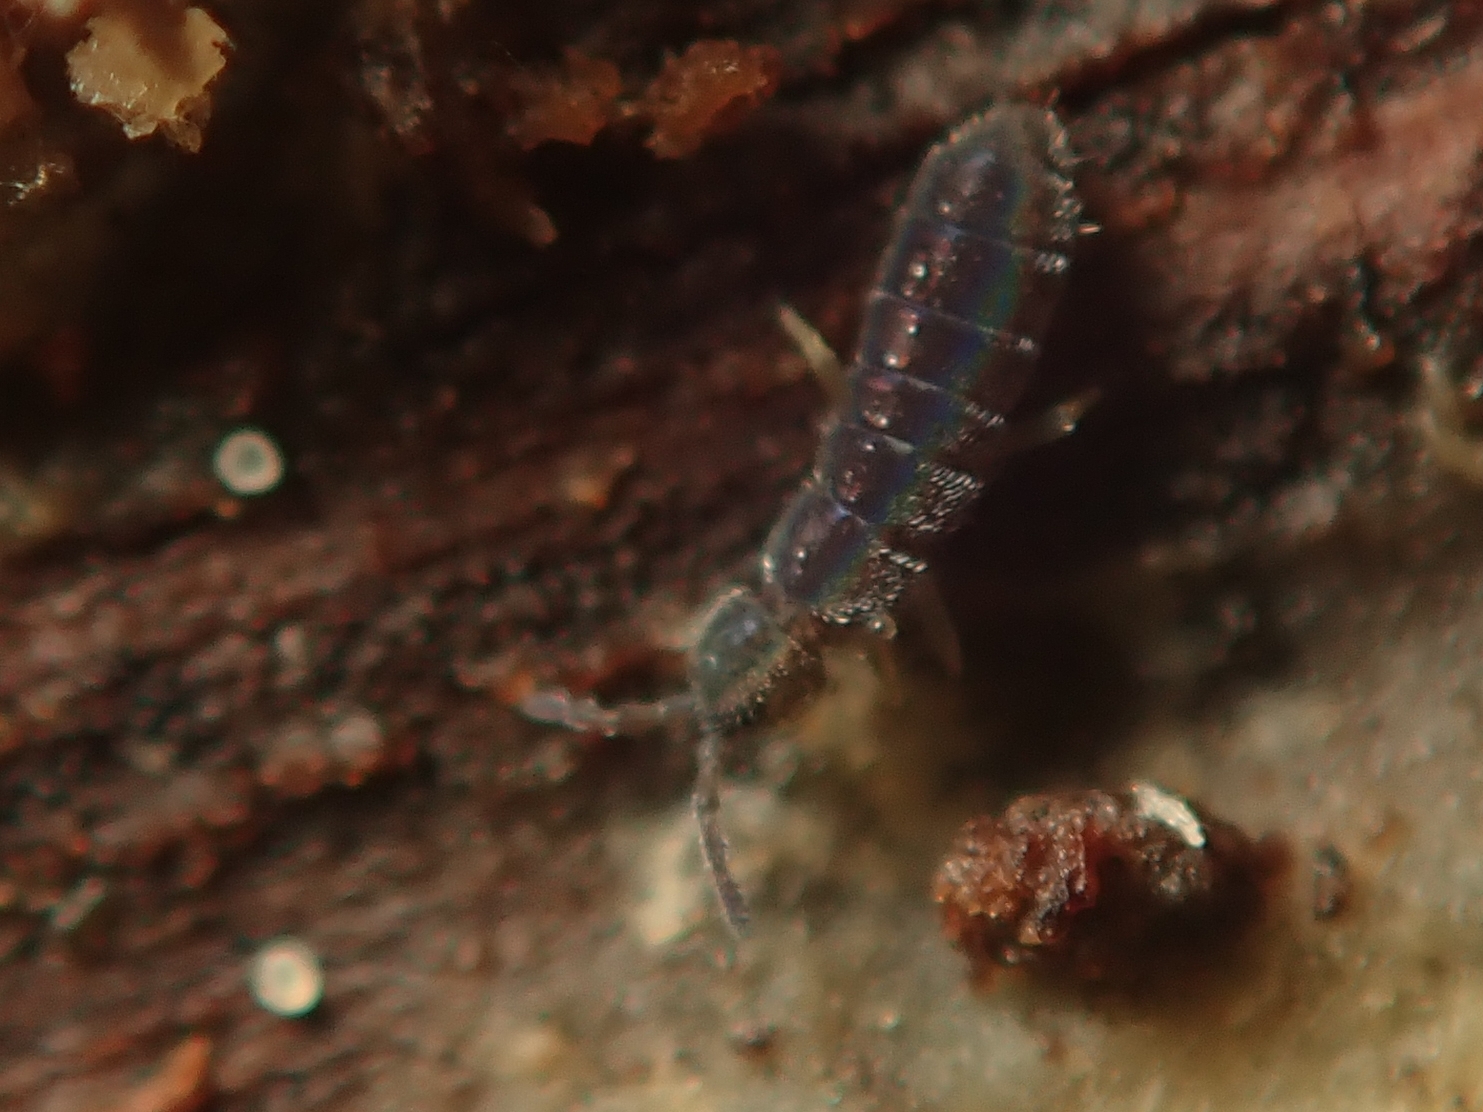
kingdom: Animalia
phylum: Arthropoda
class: Collembola
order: Entomobryomorpha
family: Isotomidae
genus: Vertagopus
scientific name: Vertagopus asiaticus
